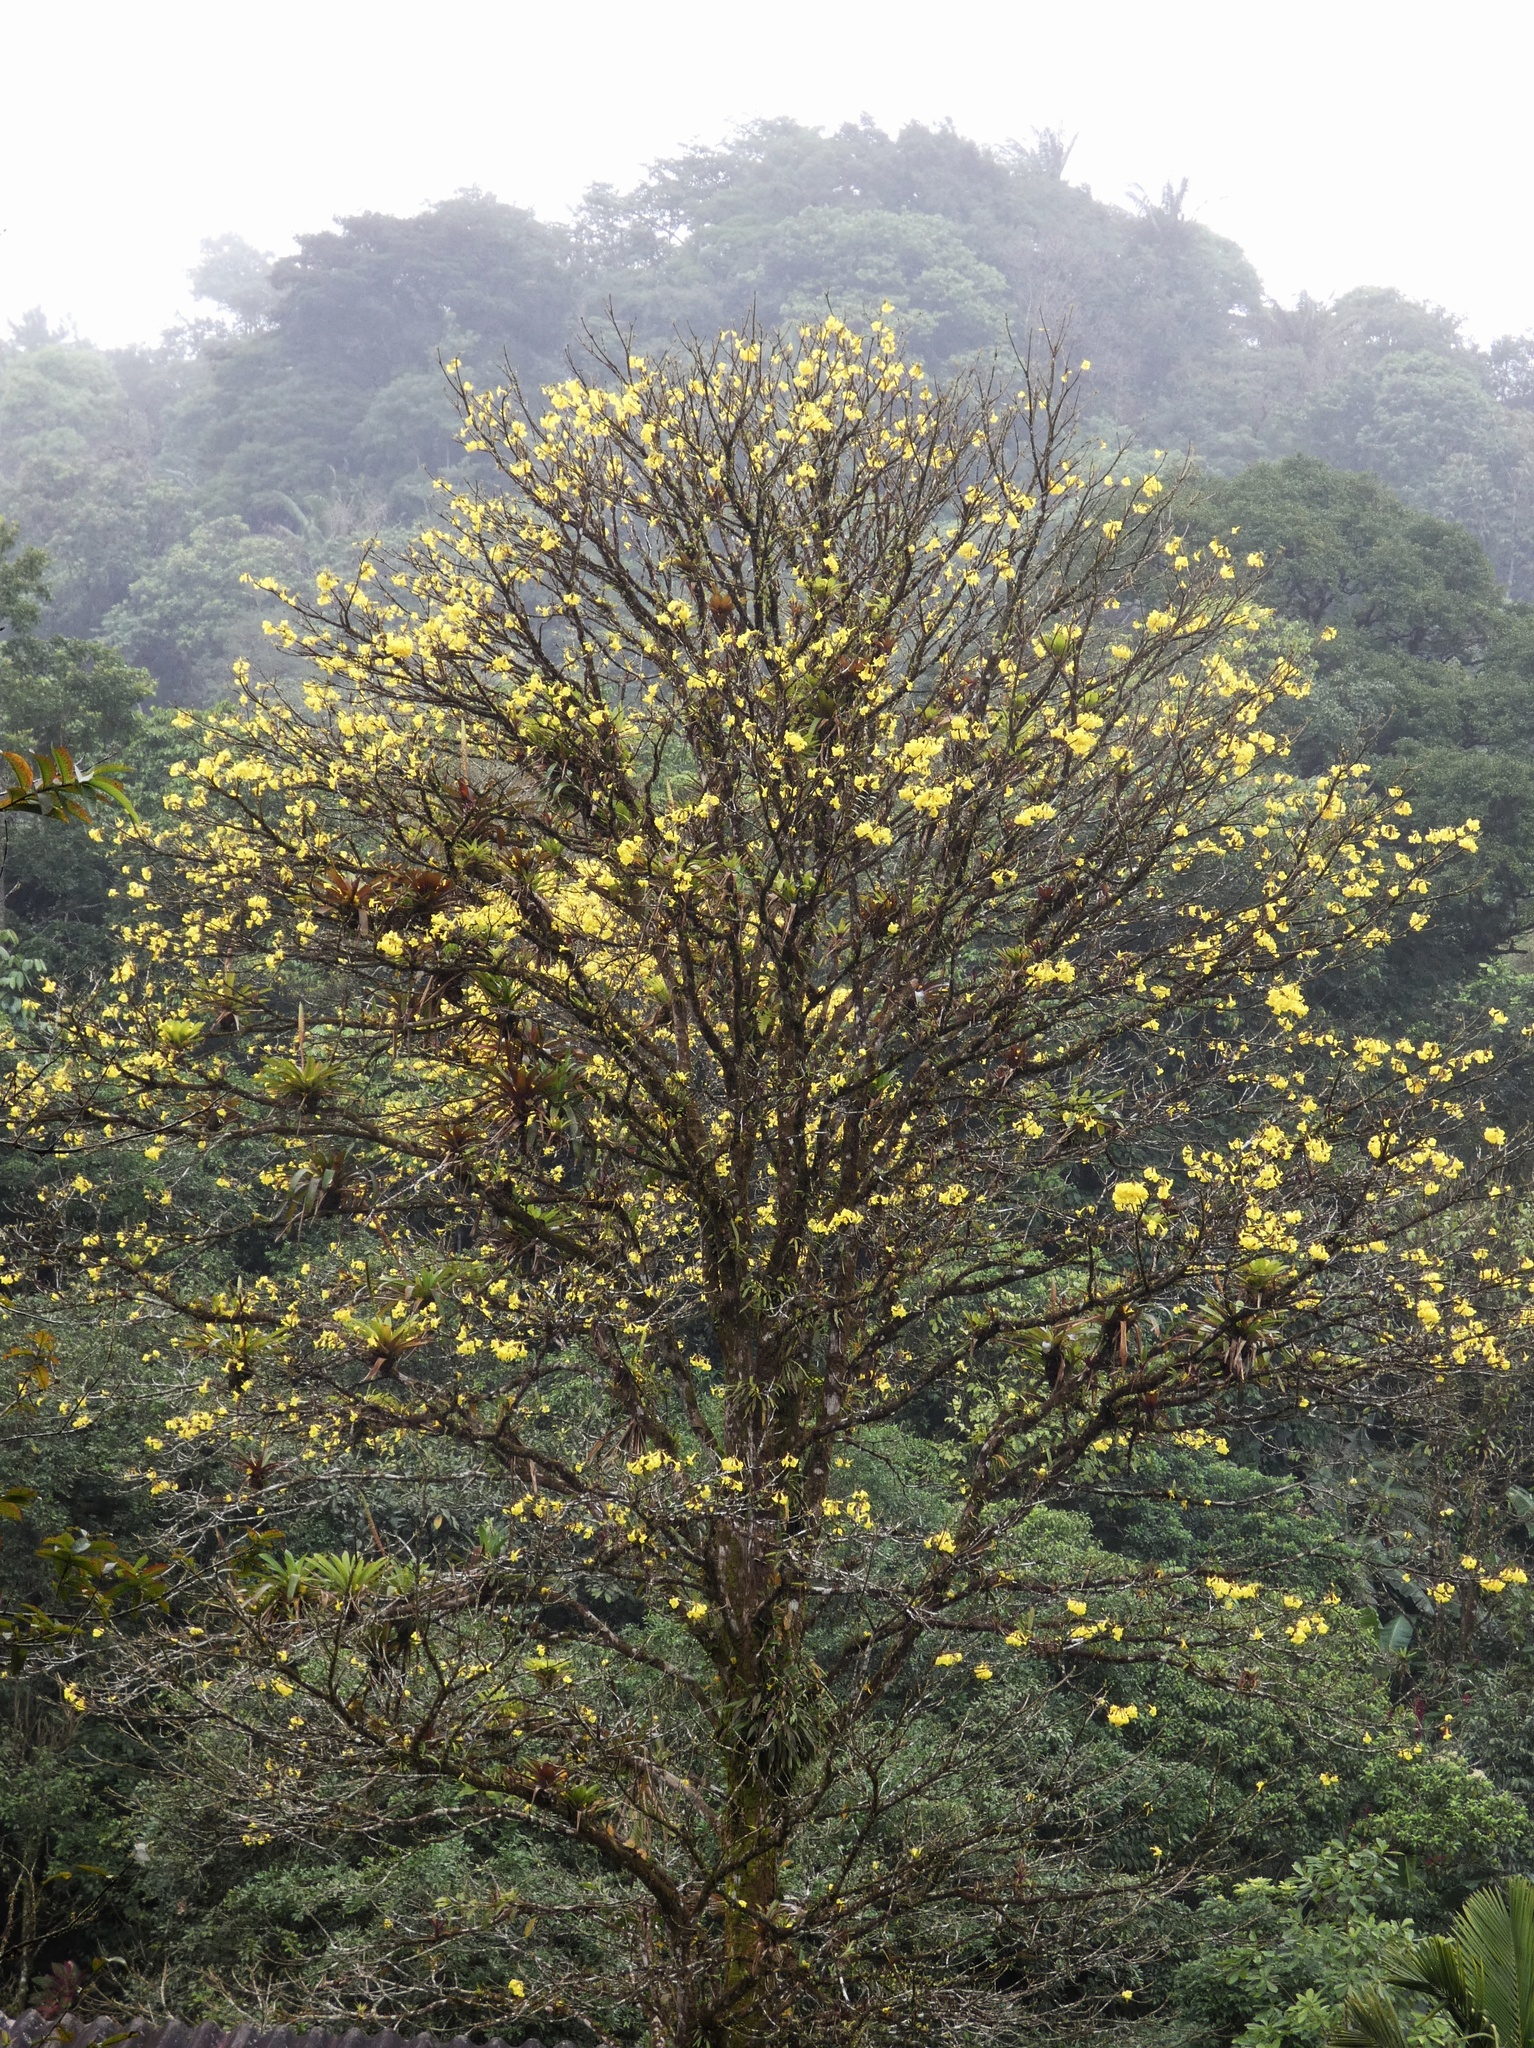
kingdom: Plantae
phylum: Tracheophyta
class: Magnoliopsida
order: Lamiales
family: Bignoniaceae
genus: Handroanthus
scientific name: Handroanthus guayacan
